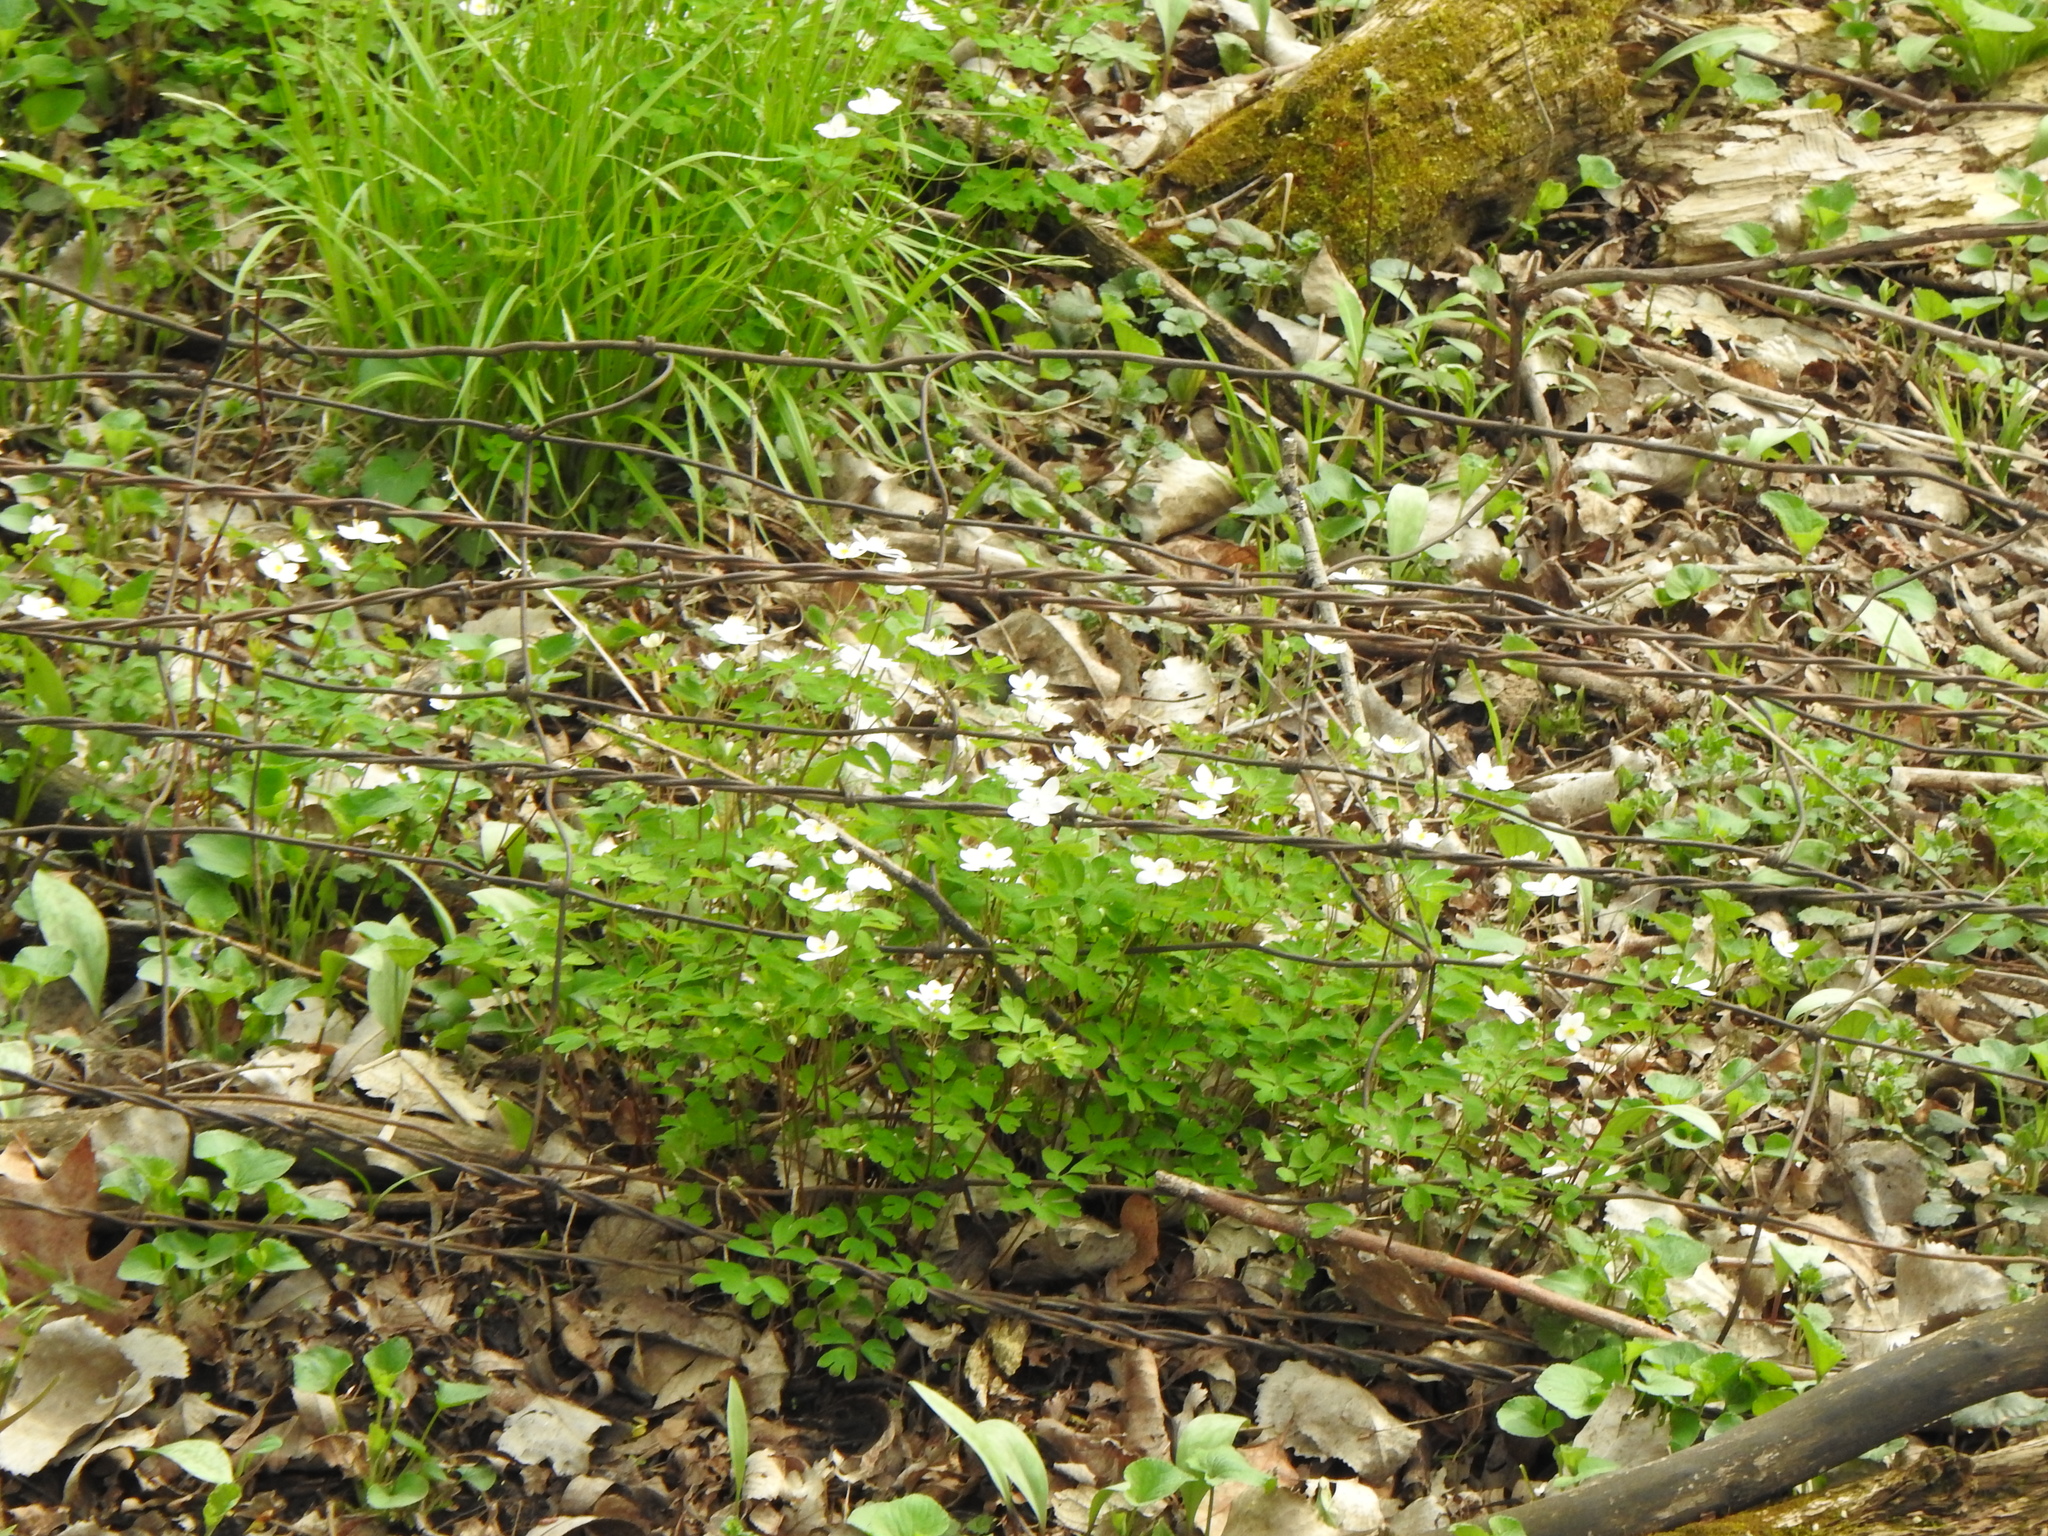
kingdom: Plantae
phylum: Tracheophyta
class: Magnoliopsida
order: Ranunculales
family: Ranunculaceae
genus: Enemion
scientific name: Enemion biternatum
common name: Eastern false rue-anemone
